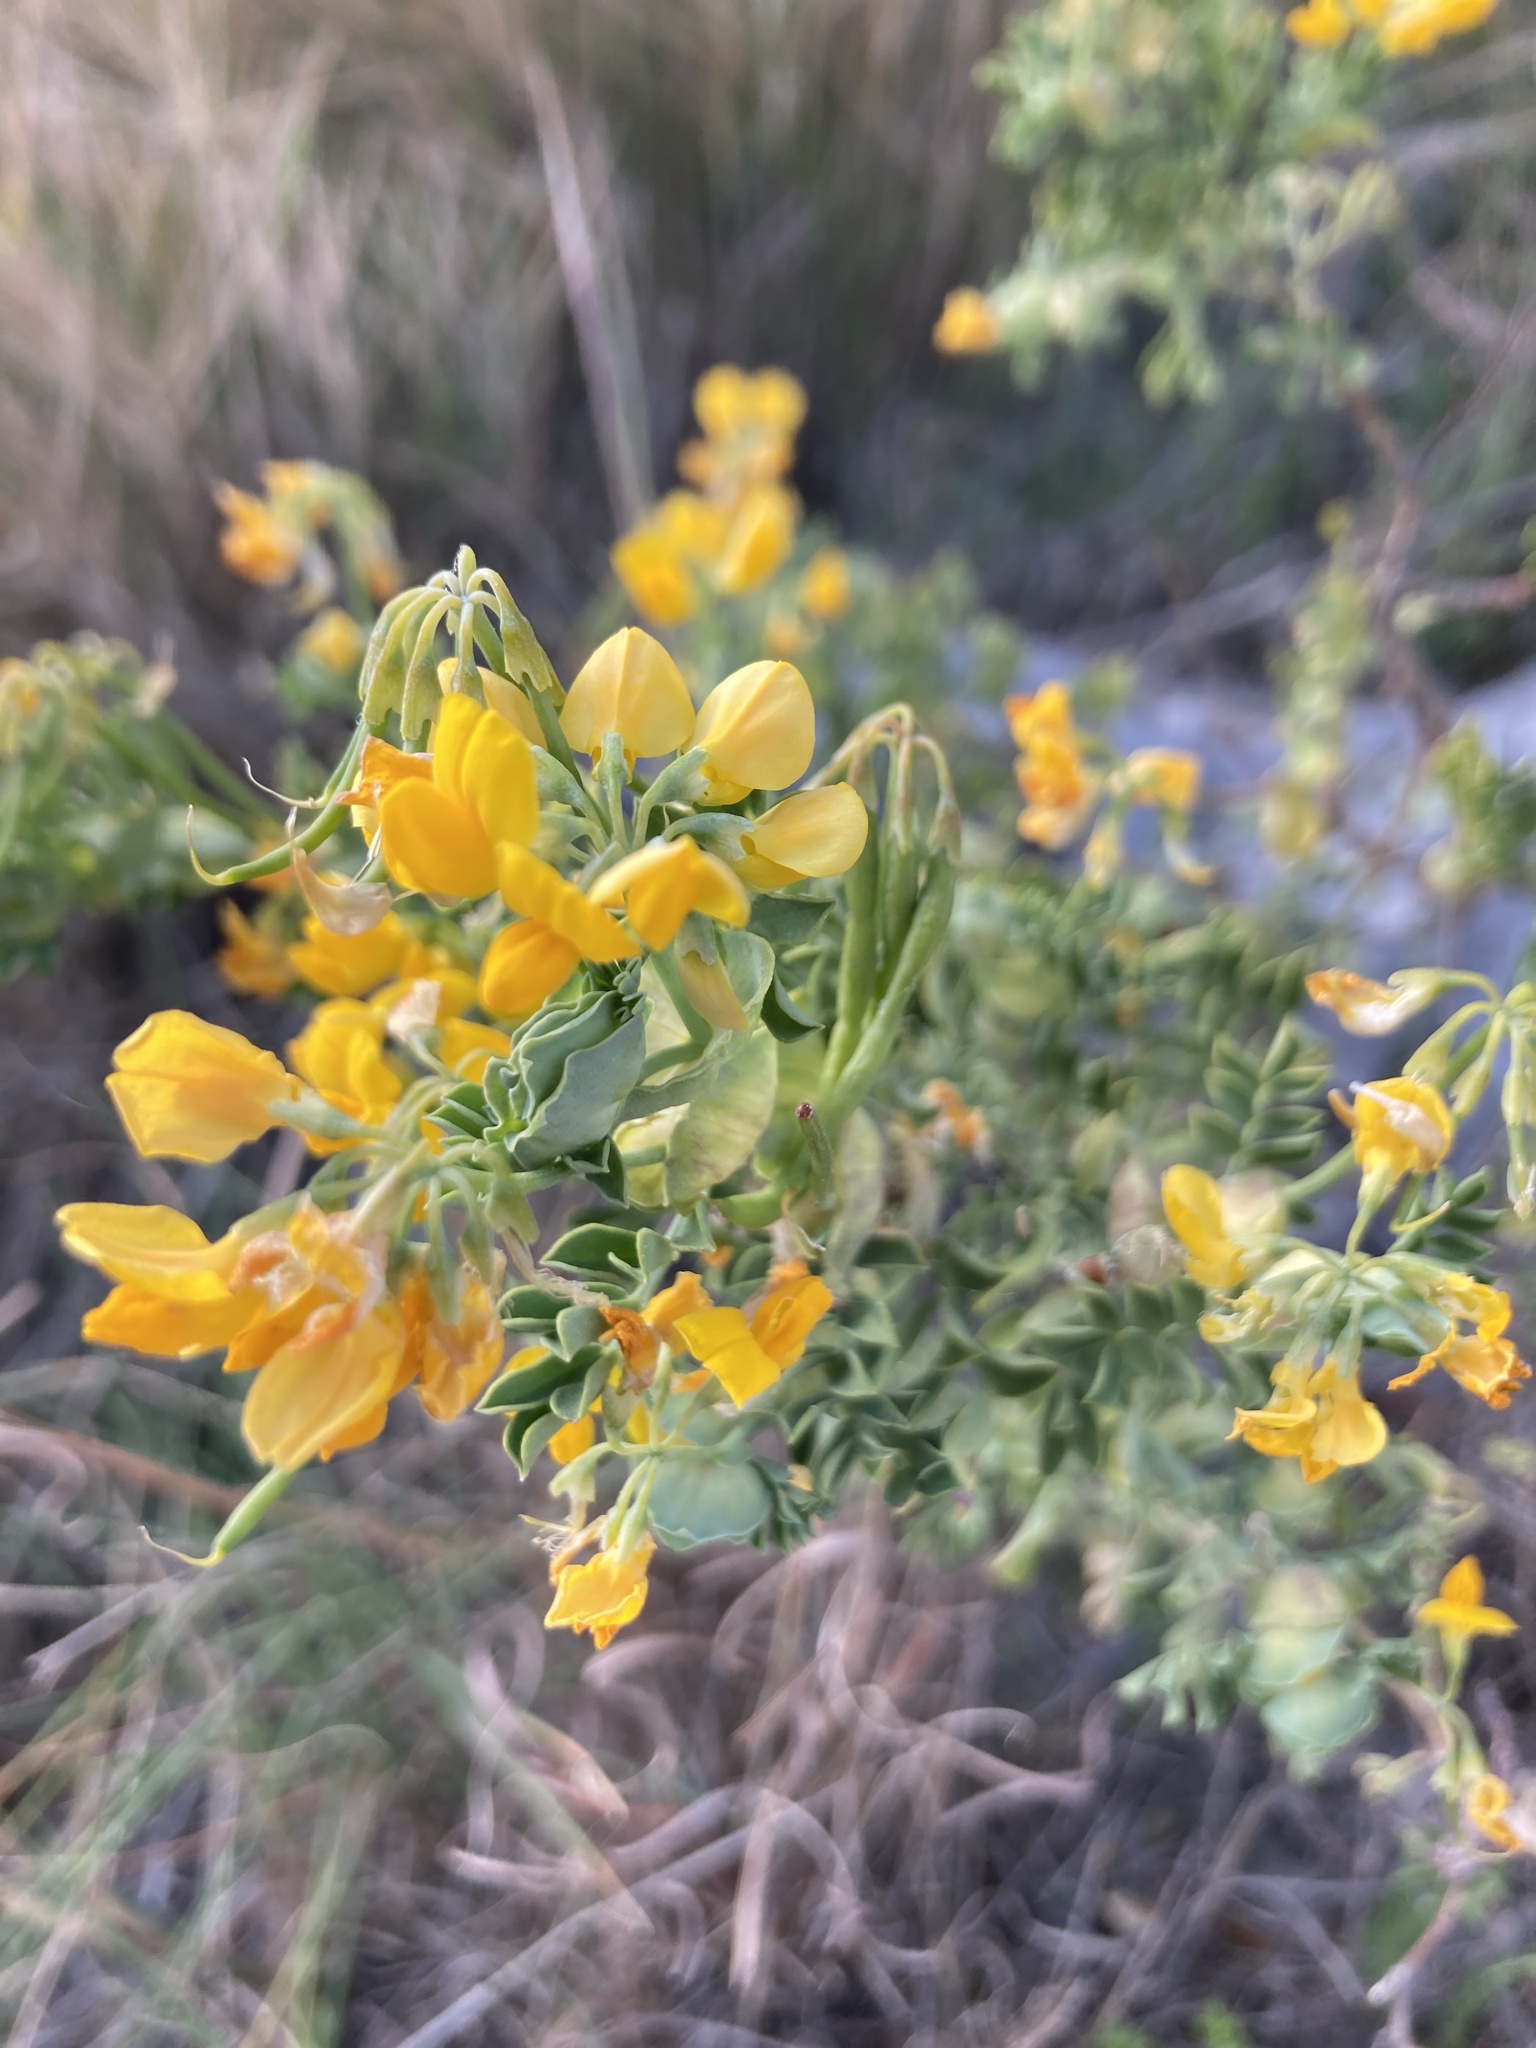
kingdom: Plantae
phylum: Tracheophyta
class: Magnoliopsida
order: Fabales
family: Fabaceae
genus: Coronilla
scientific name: Coronilla valentina
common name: Shrubby scorpion-vetch
